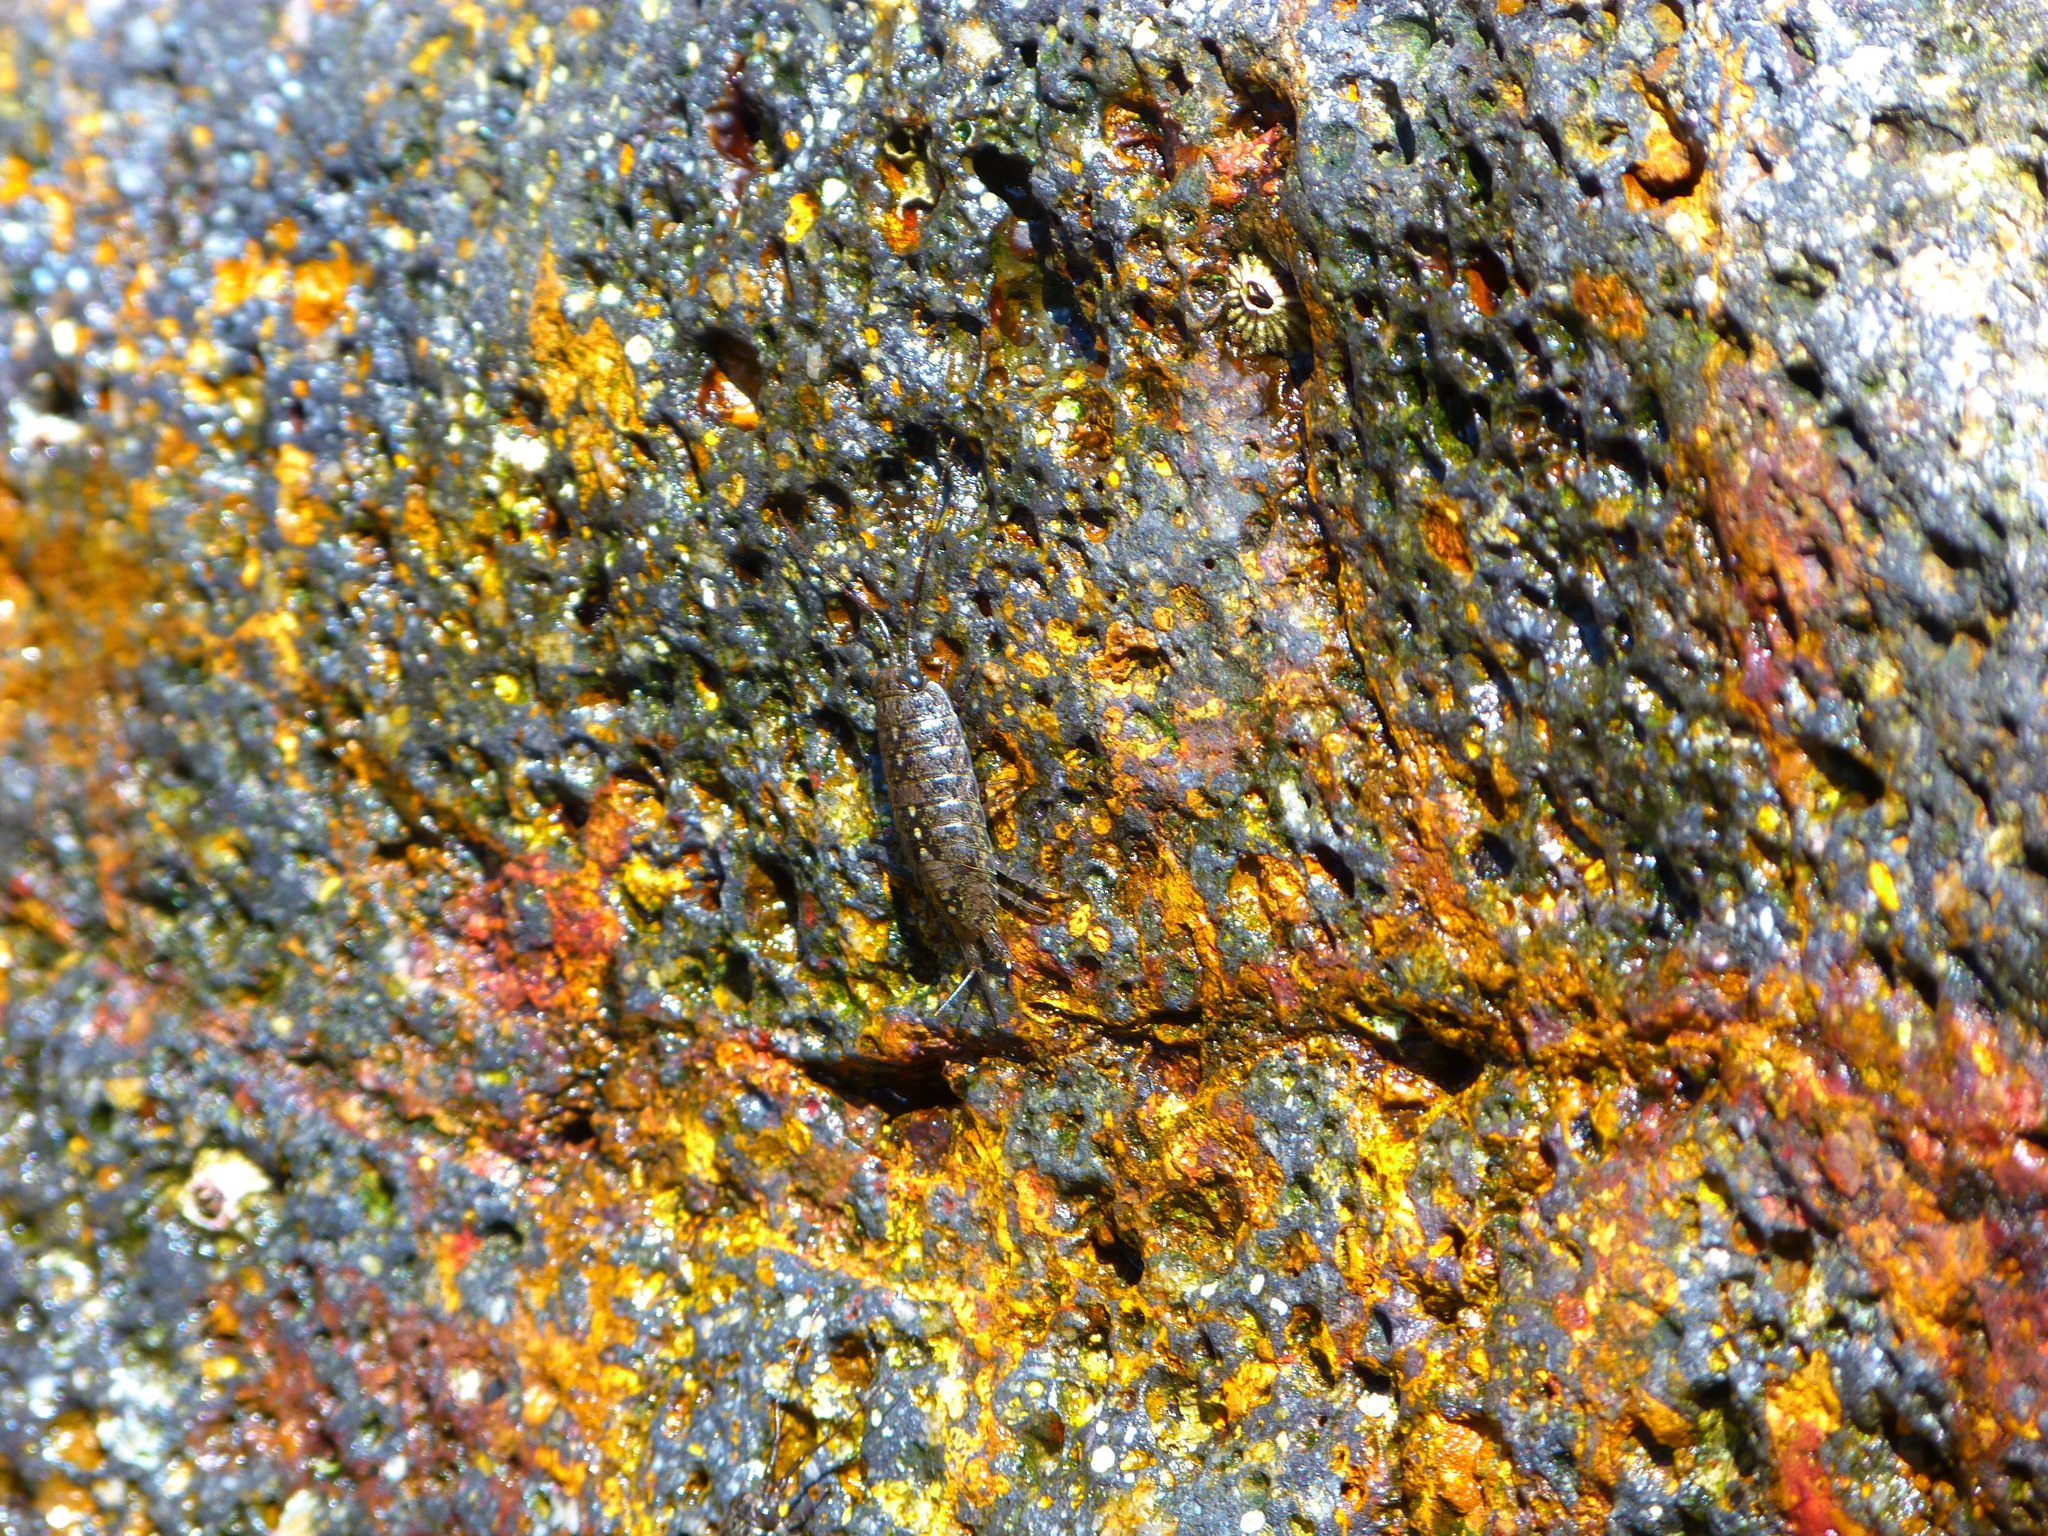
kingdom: Animalia
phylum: Arthropoda
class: Malacostraca
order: Isopoda
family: Ligiidae
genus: Ligia
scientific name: Ligia occidentalis
